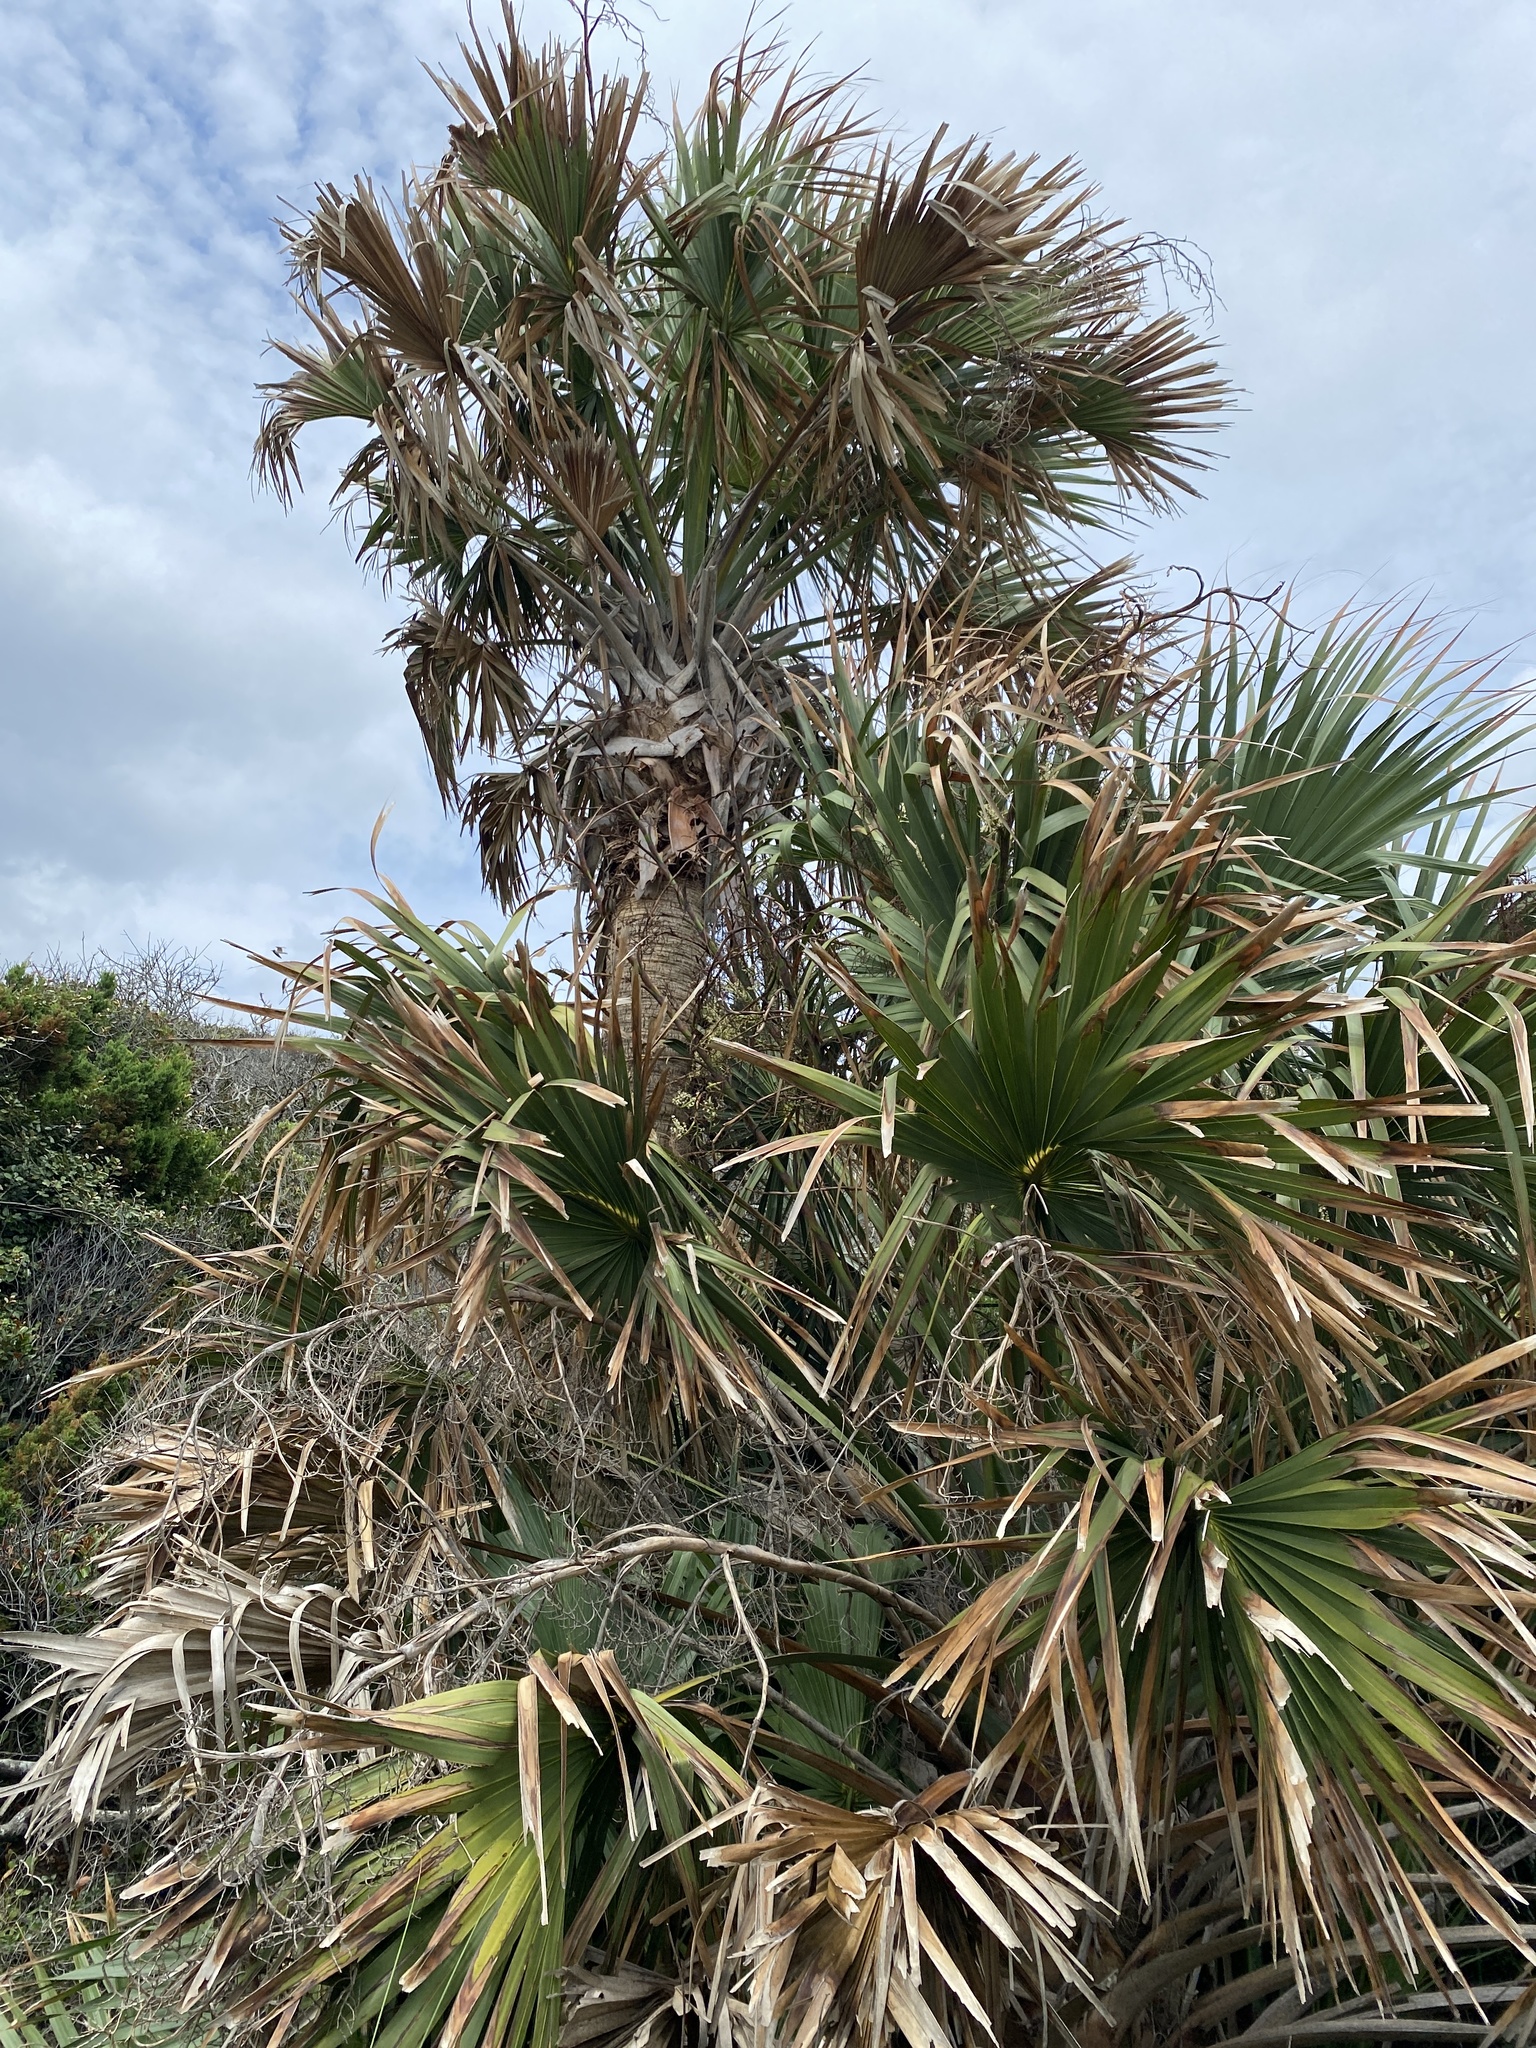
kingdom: Plantae
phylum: Tracheophyta
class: Liliopsida
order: Arecales
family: Arecaceae
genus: Sabal
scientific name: Sabal palmetto
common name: Blue palmetto
